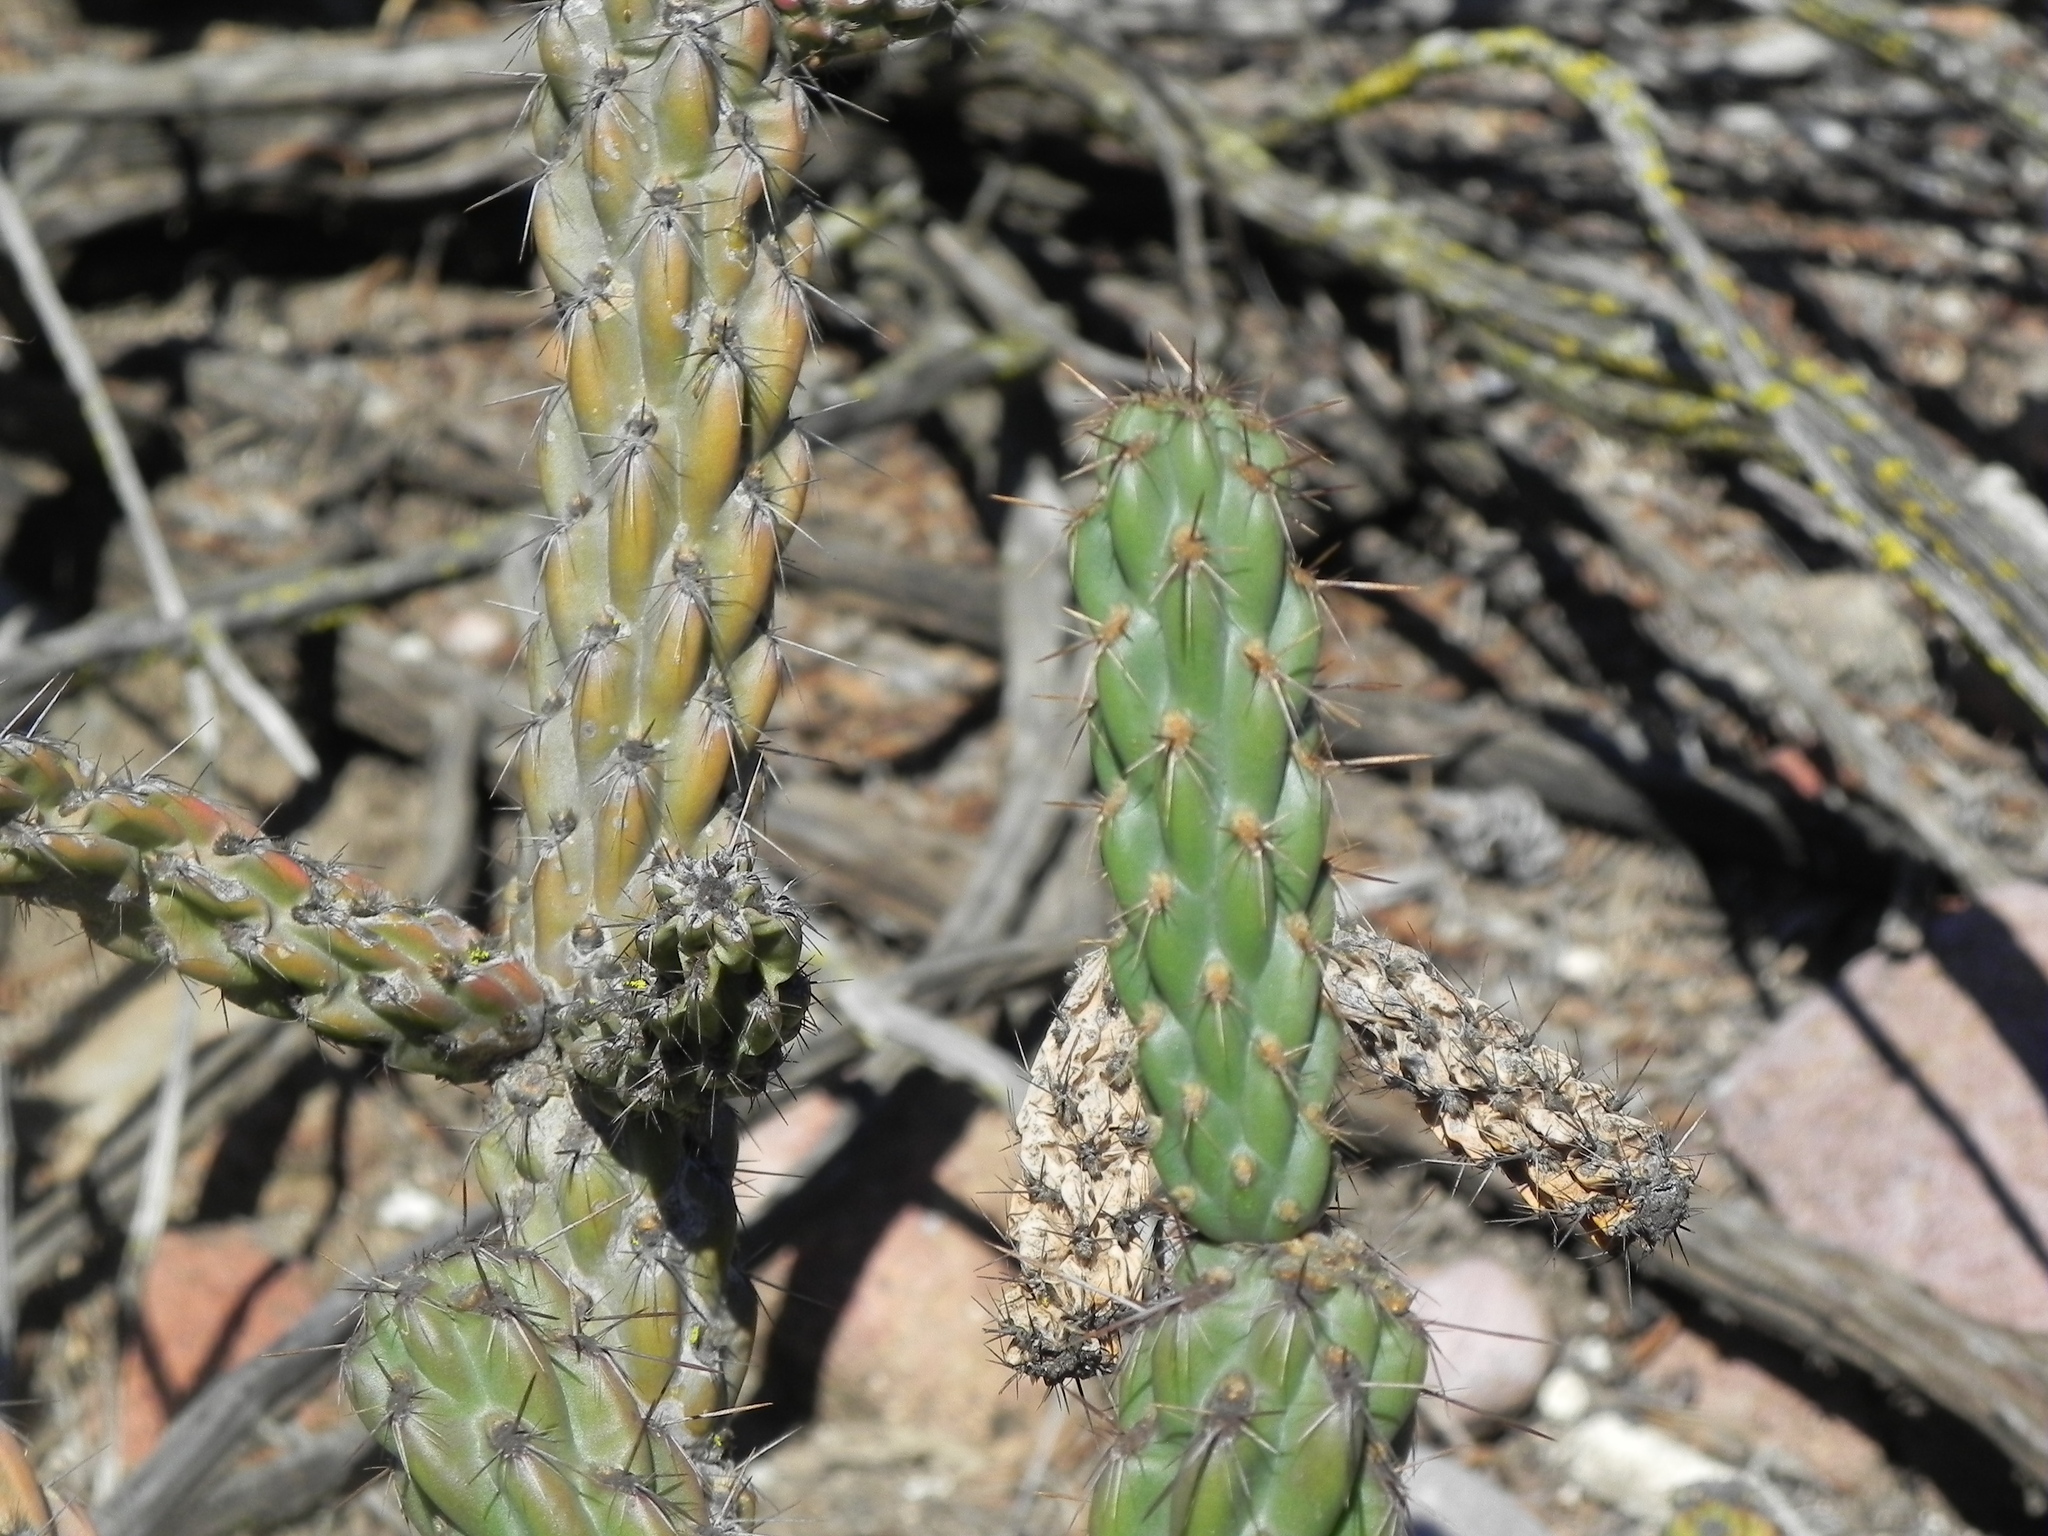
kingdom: Plantae
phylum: Tracheophyta
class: Magnoliopsida
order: Caryophyllales
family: Cactaceae
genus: Cylindropuntia
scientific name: Cylindropuntia californica
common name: Snake cholla
